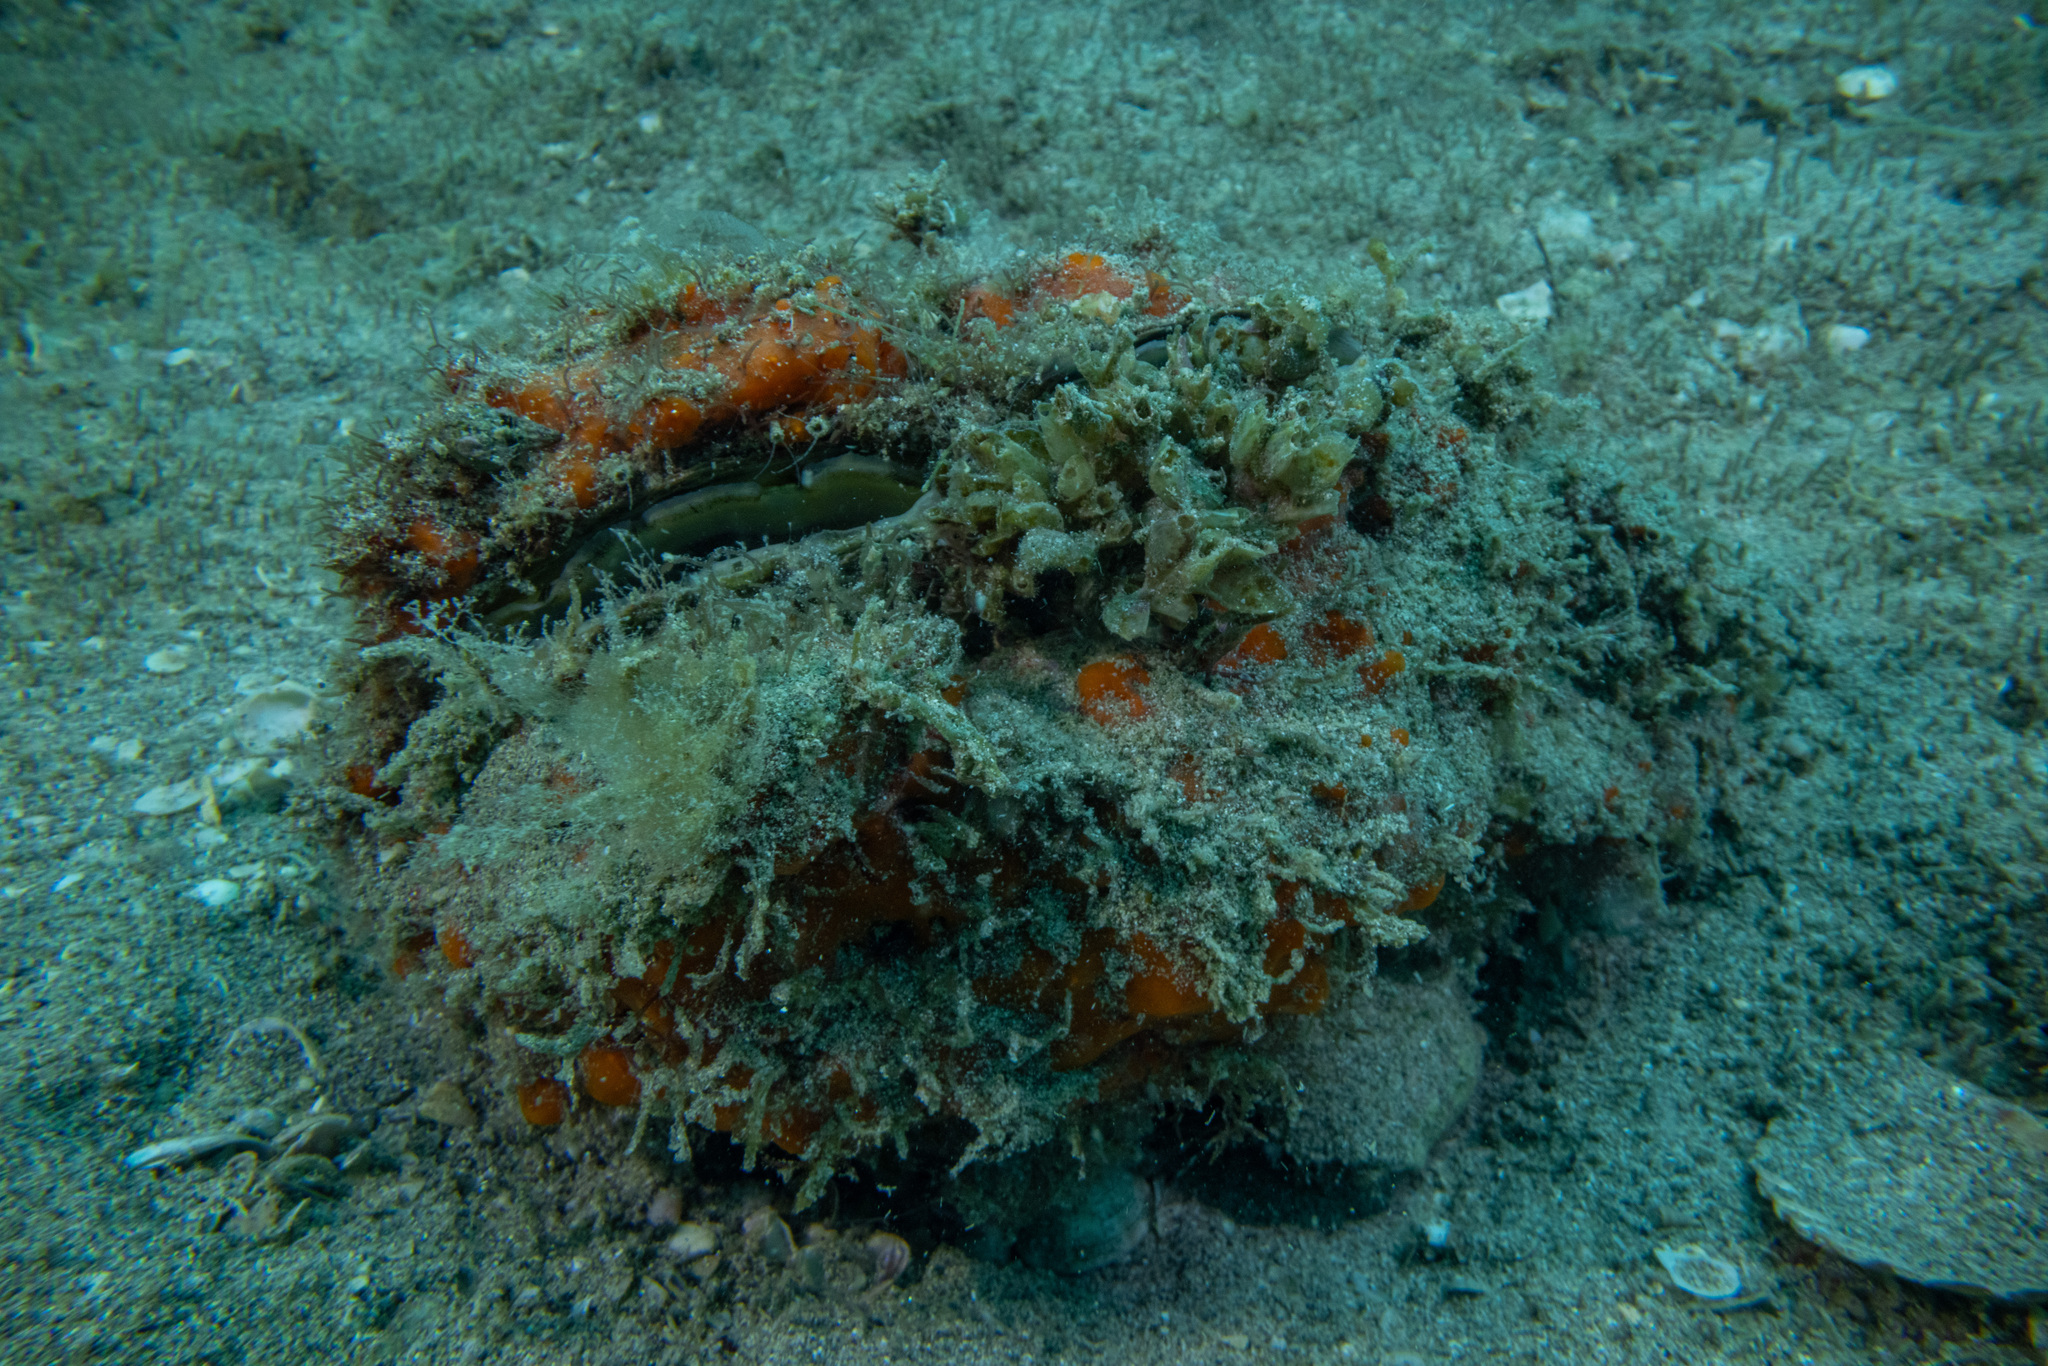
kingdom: Animalia
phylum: Mollusca
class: Bivalvia
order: Ostreida
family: Pinnidae
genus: Atrina
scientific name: Atrina zelandica
